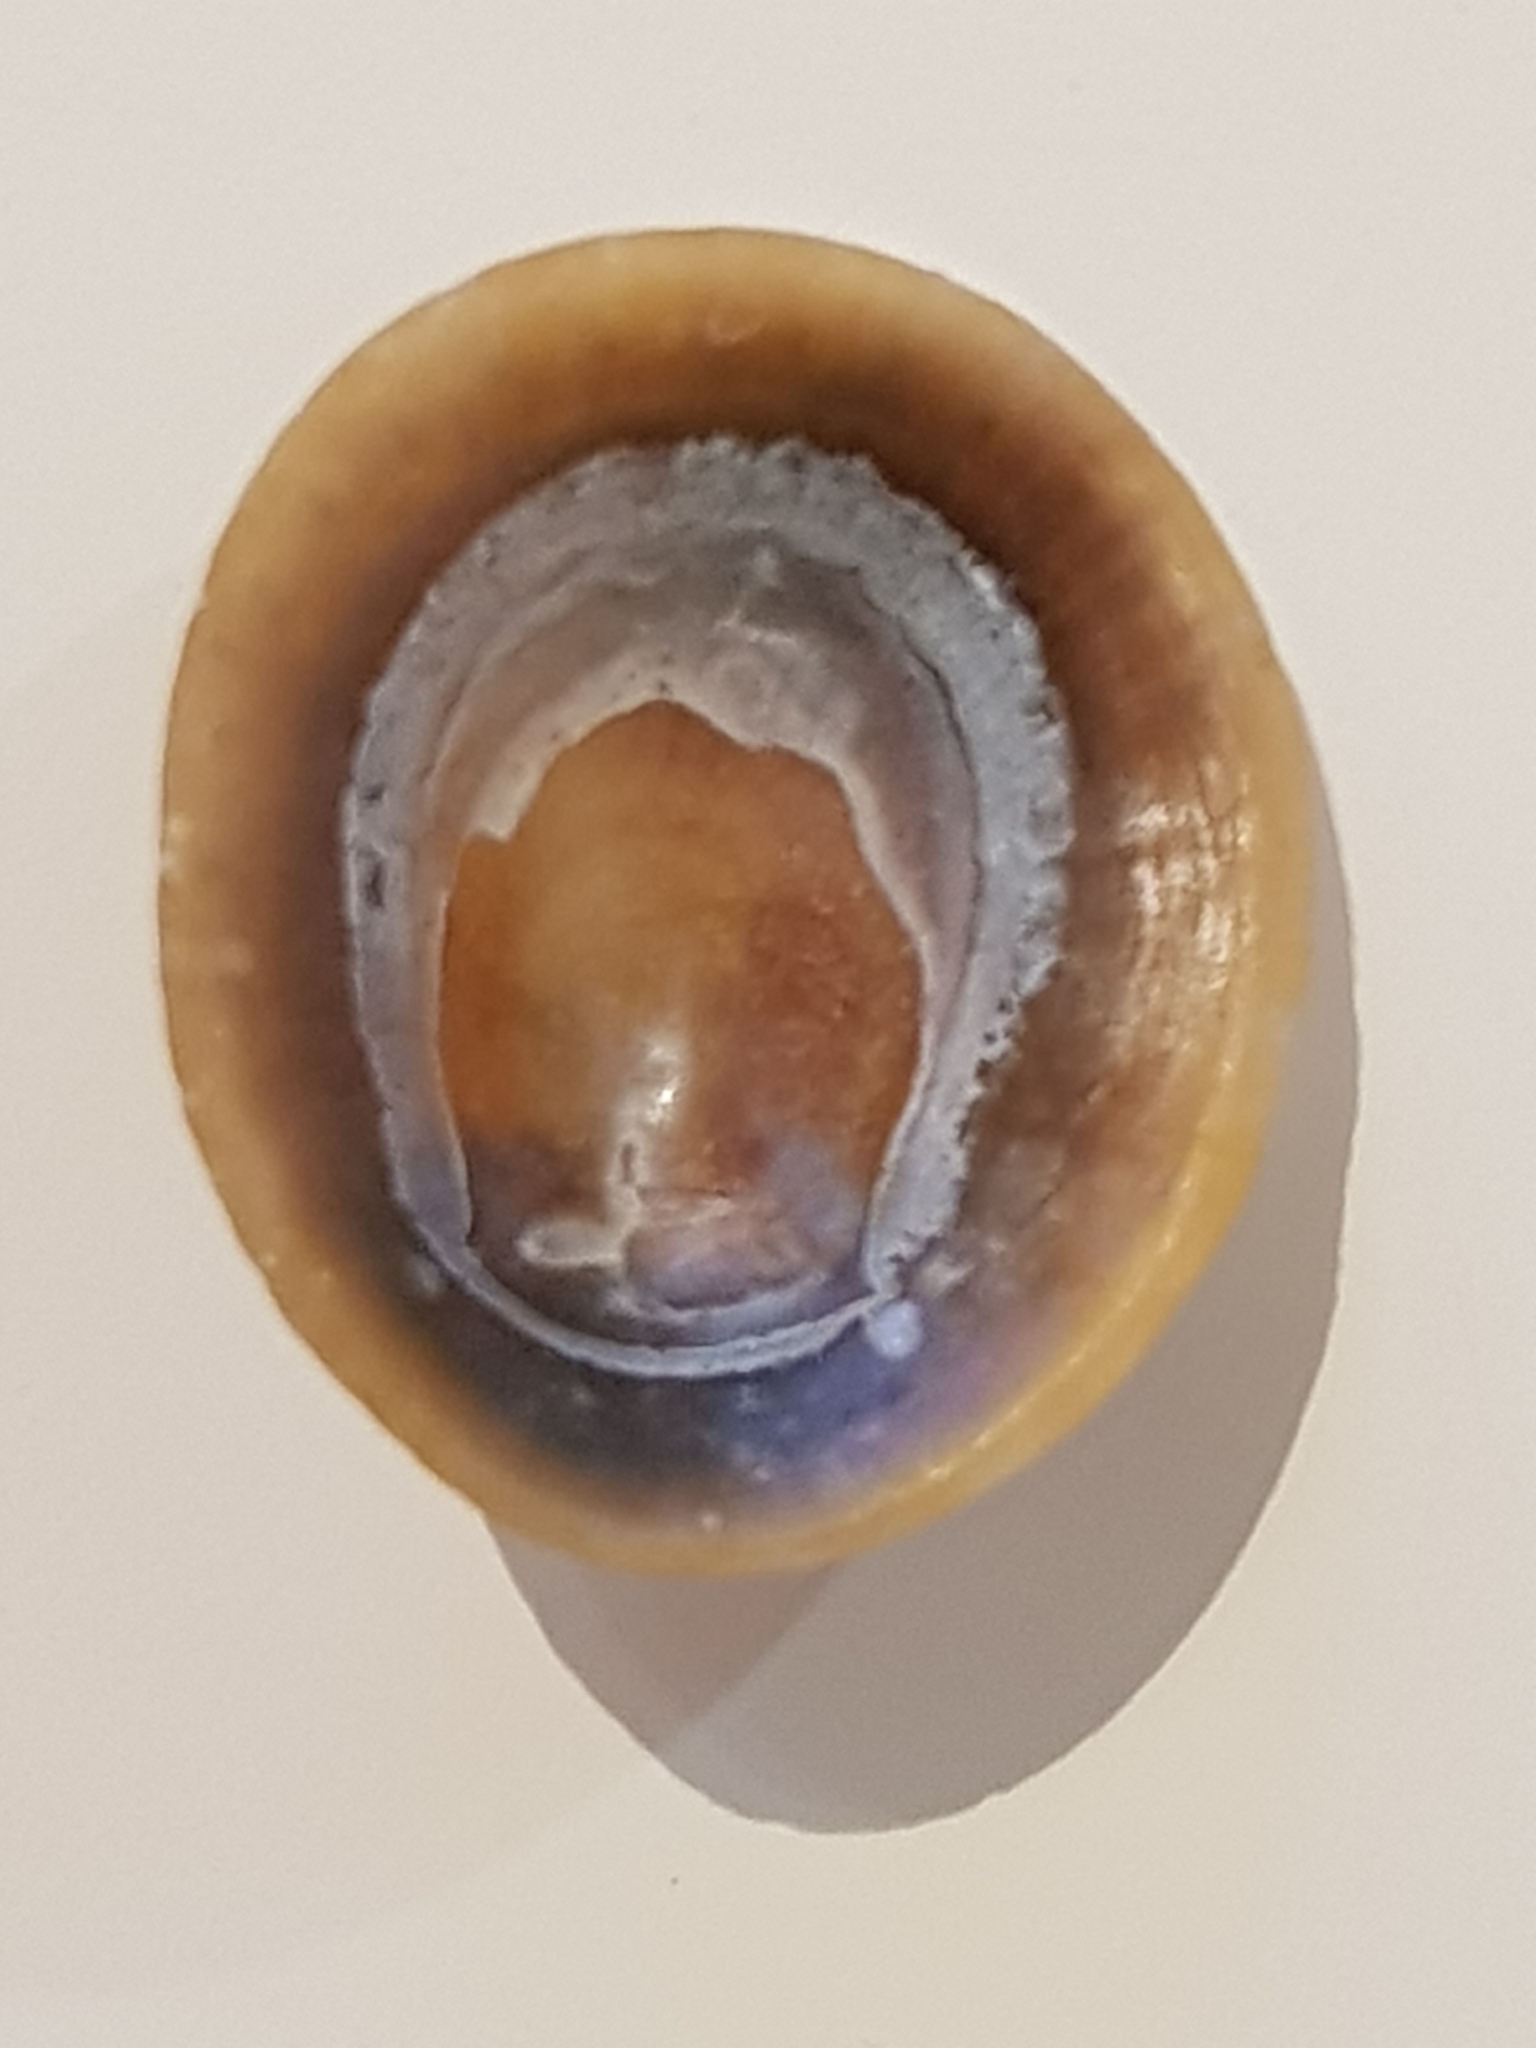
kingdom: Animalia
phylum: Mollusca
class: Gastropoda
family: Patellidae
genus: Patella
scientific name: Patella pellucida
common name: Blue-rayed limpet
